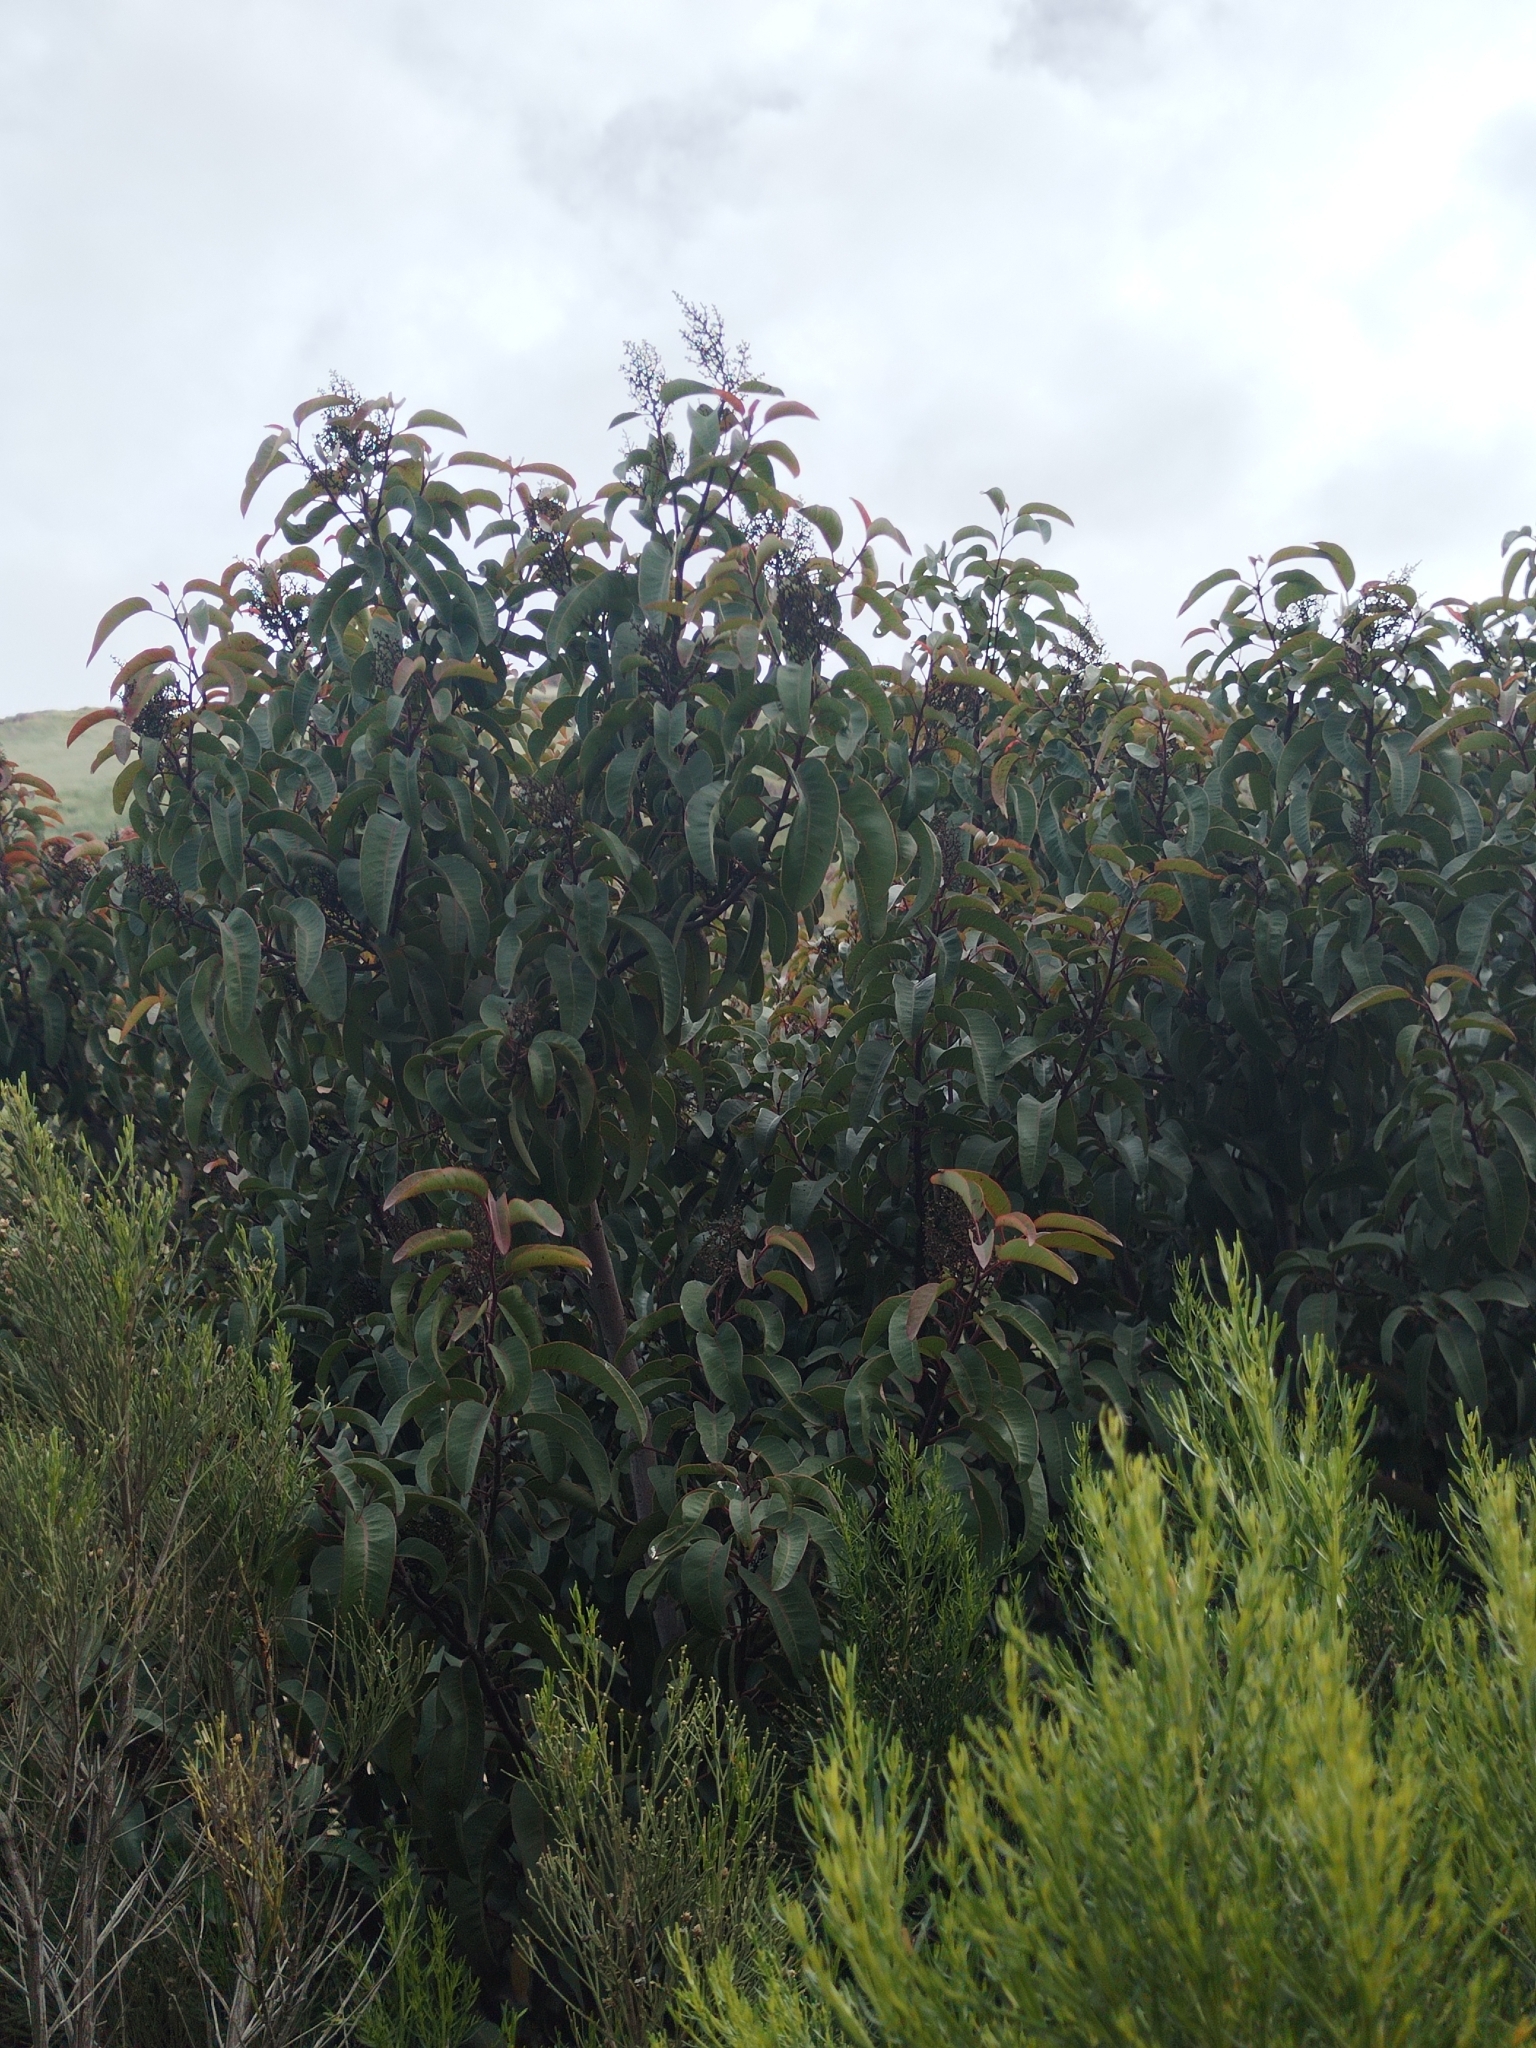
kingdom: Plantae
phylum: Tracheophyta
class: Magnoliopsida
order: Sapindales
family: Anacardiaceae
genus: Malosma
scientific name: Malosma laurina
